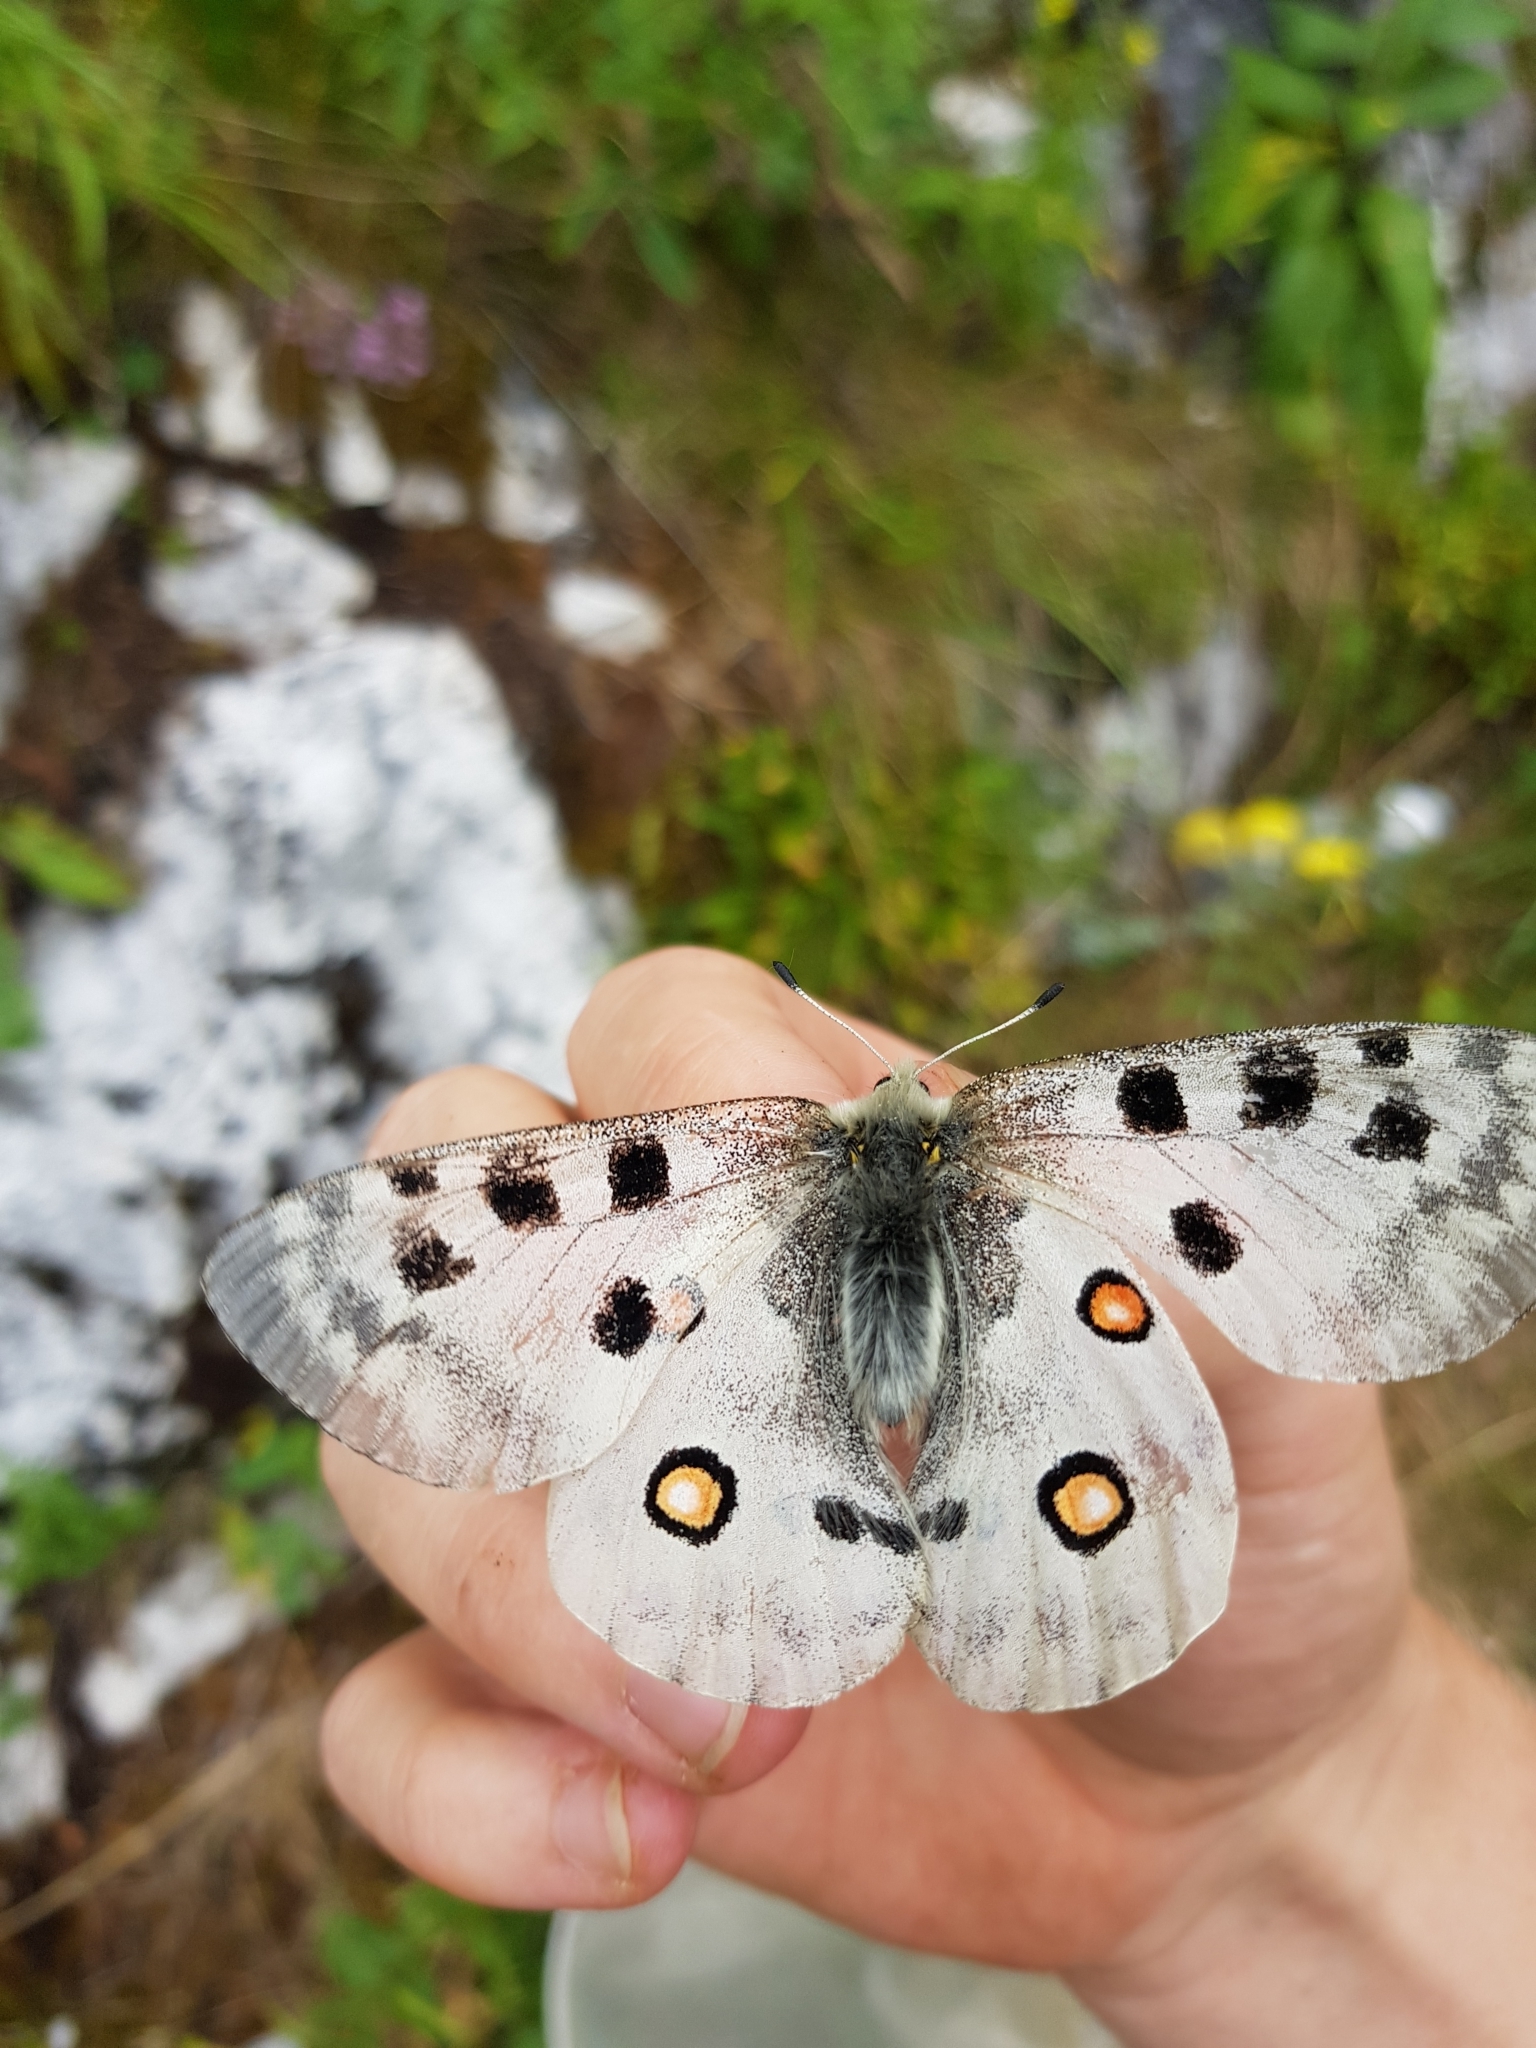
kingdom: Animalia
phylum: Arthropoda
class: Insecta
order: Lepidoptera
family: Papilionidae
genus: Parnassius
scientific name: Parnassius apollo
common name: Apollo
